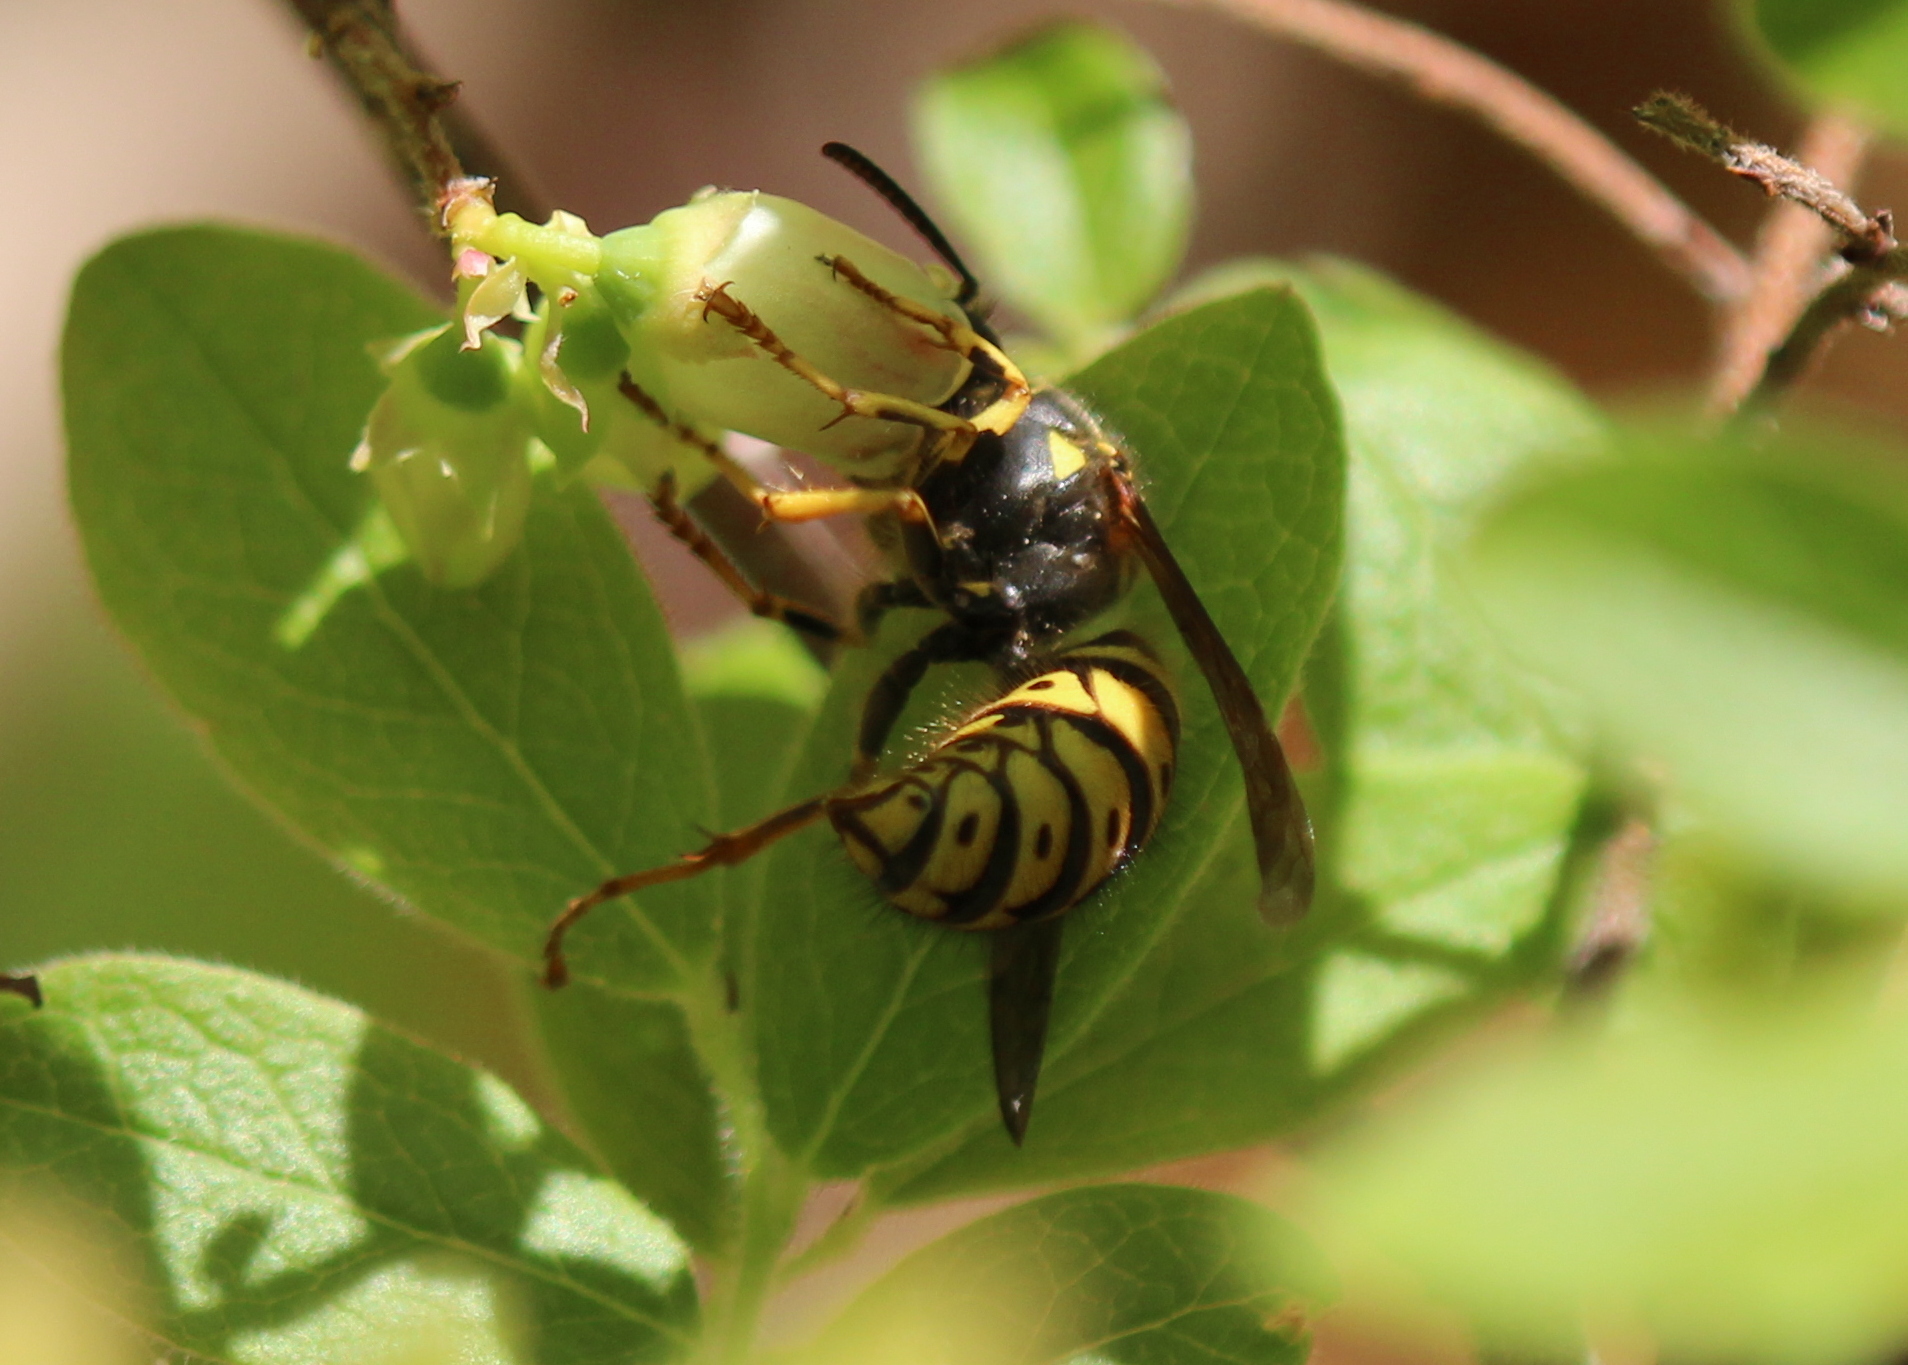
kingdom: Animalia
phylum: Arthropoda
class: Insecta
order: Hymenoptera
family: Vespidae
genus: Dolichovespula
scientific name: Dolichovespula arenaria
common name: Aerial yellowjacket
